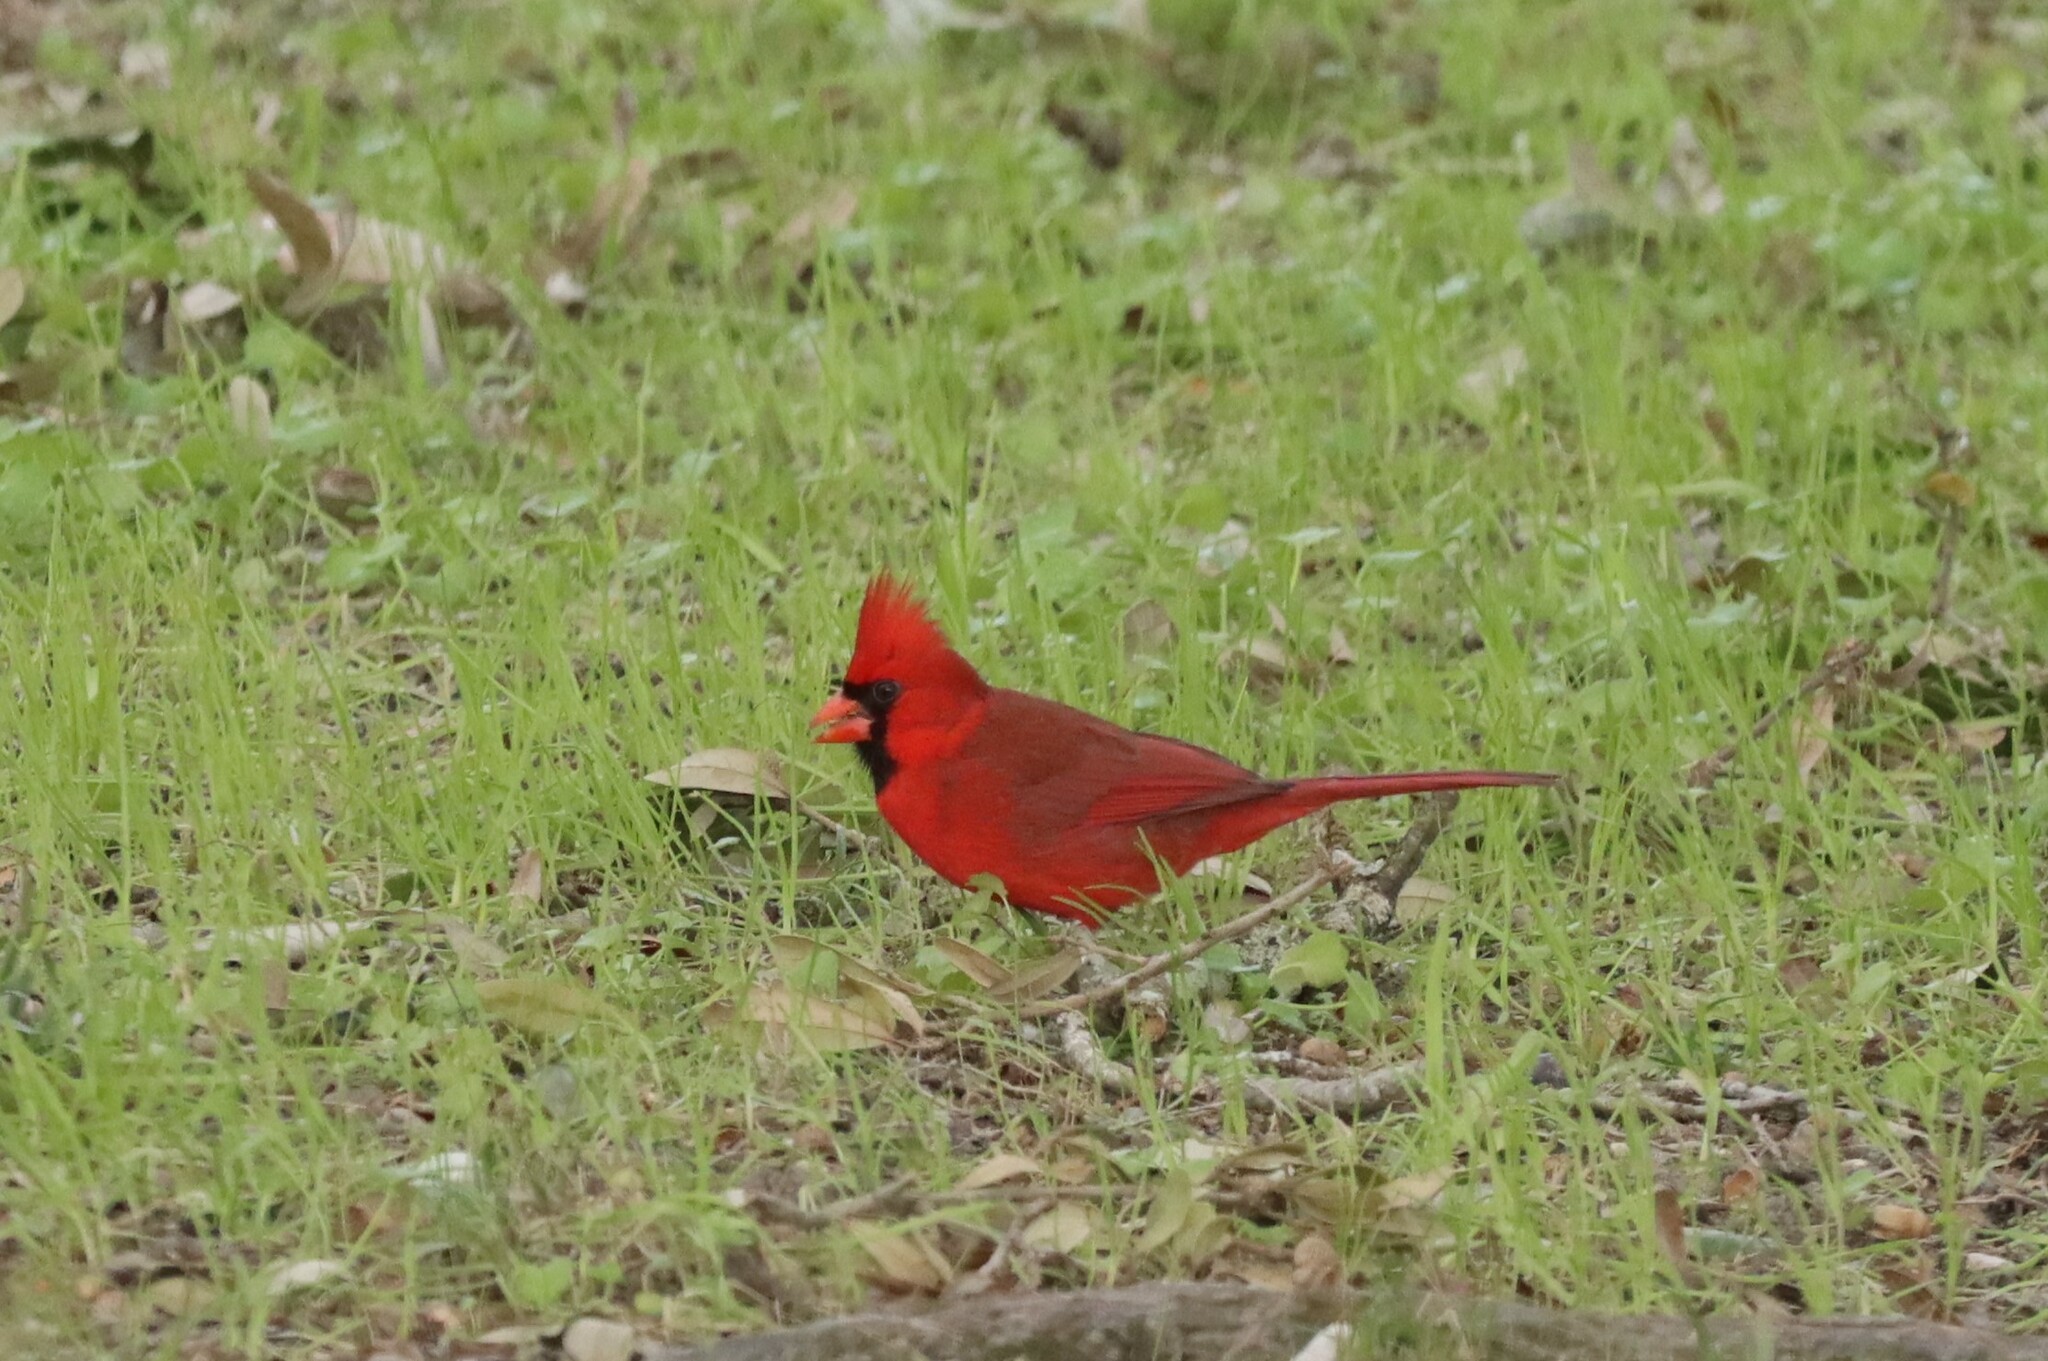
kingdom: Animalia
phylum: Chordata
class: Aves
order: Passeriformes
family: Cardinalidae
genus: Cardinalis
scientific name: Cardinalis cardinalis
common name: Northern cardinal
